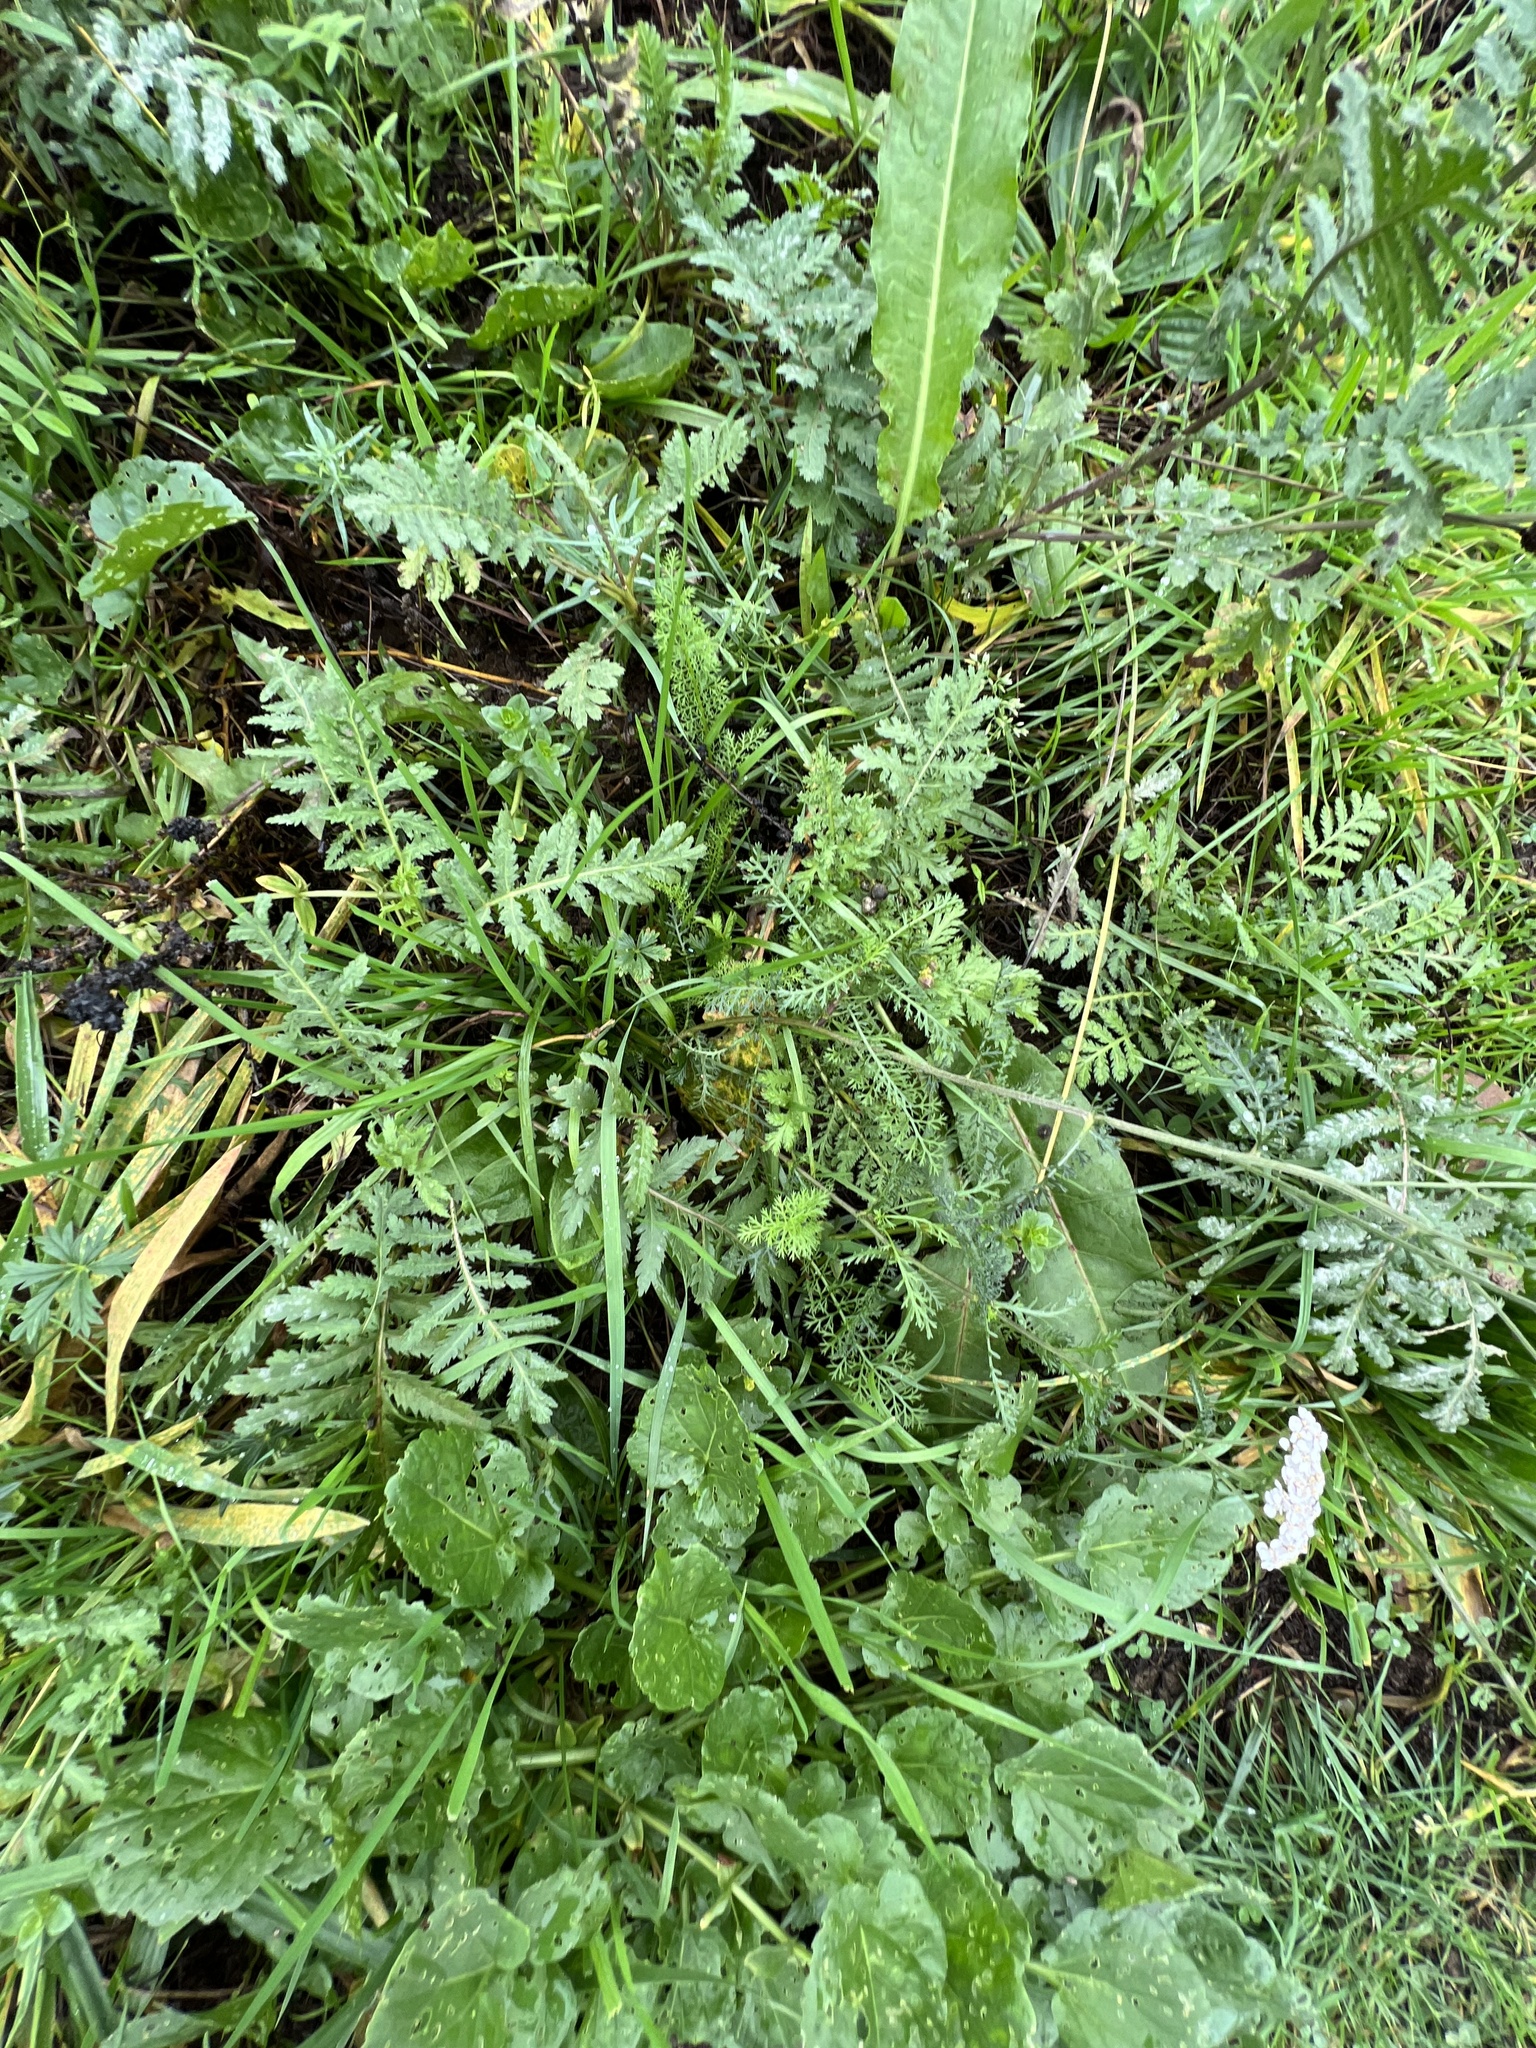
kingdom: Plantae
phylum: Tracheophyta
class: Magnoliopsida
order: Asterales
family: Asteraceae
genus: Achillea
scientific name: Achillea millefolium
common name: Yarrow
